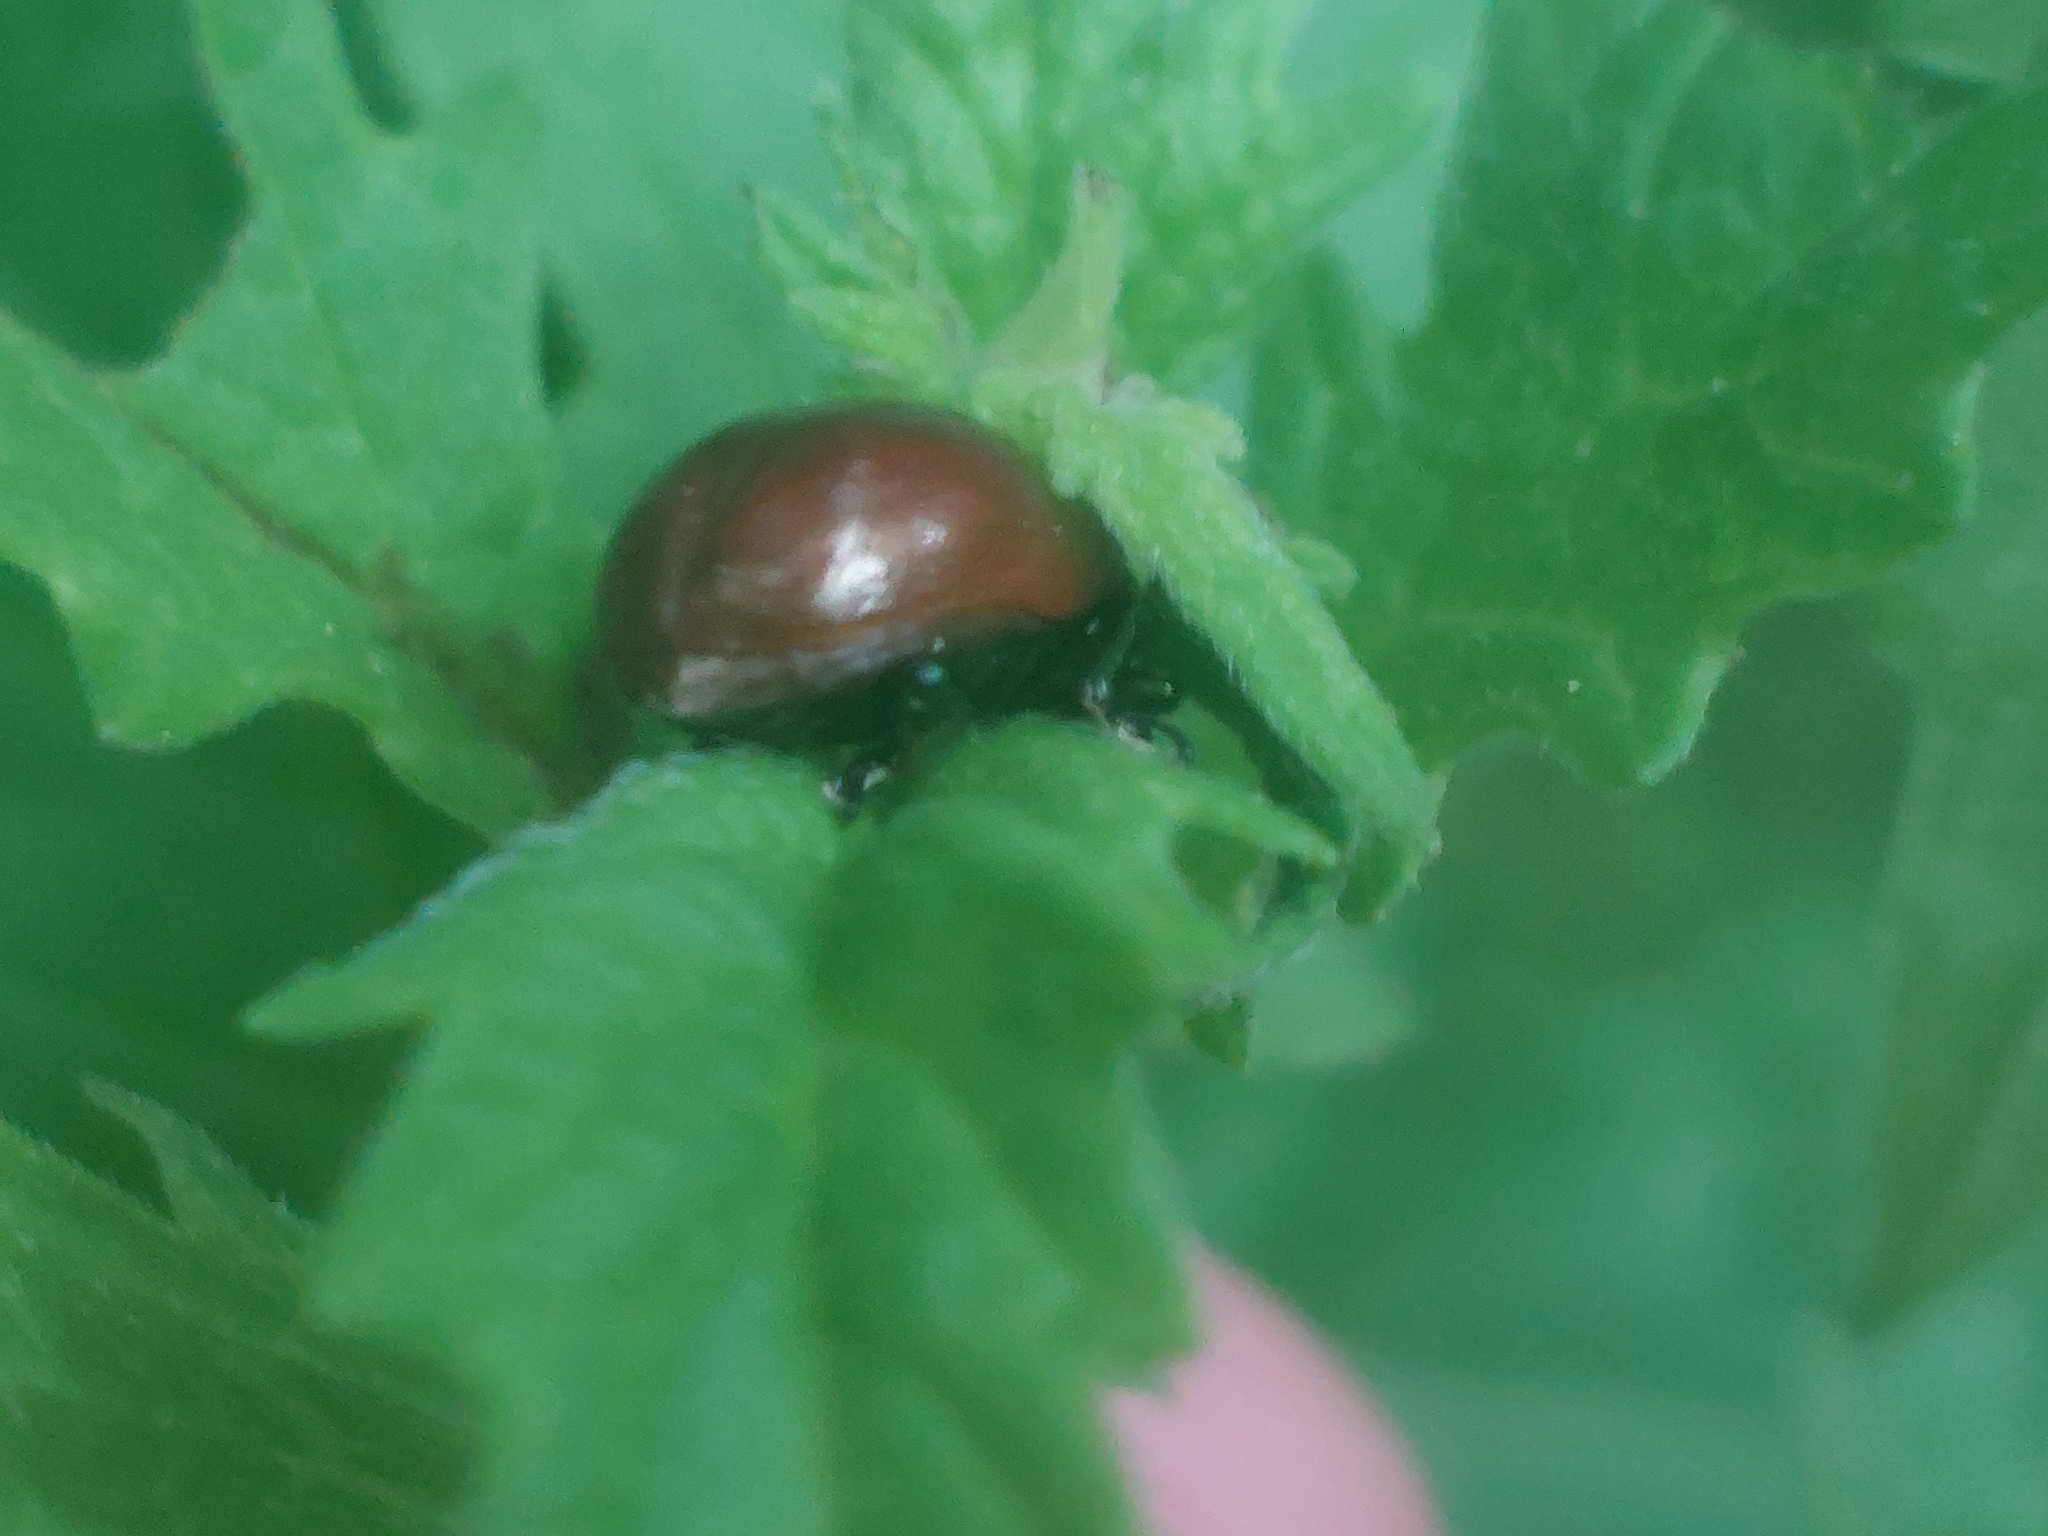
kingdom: Animalia
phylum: Arthropoda
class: Insecta
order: Coleoptera
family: Chrysomelidae
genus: Chrysomela
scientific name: Chrysomela polita
